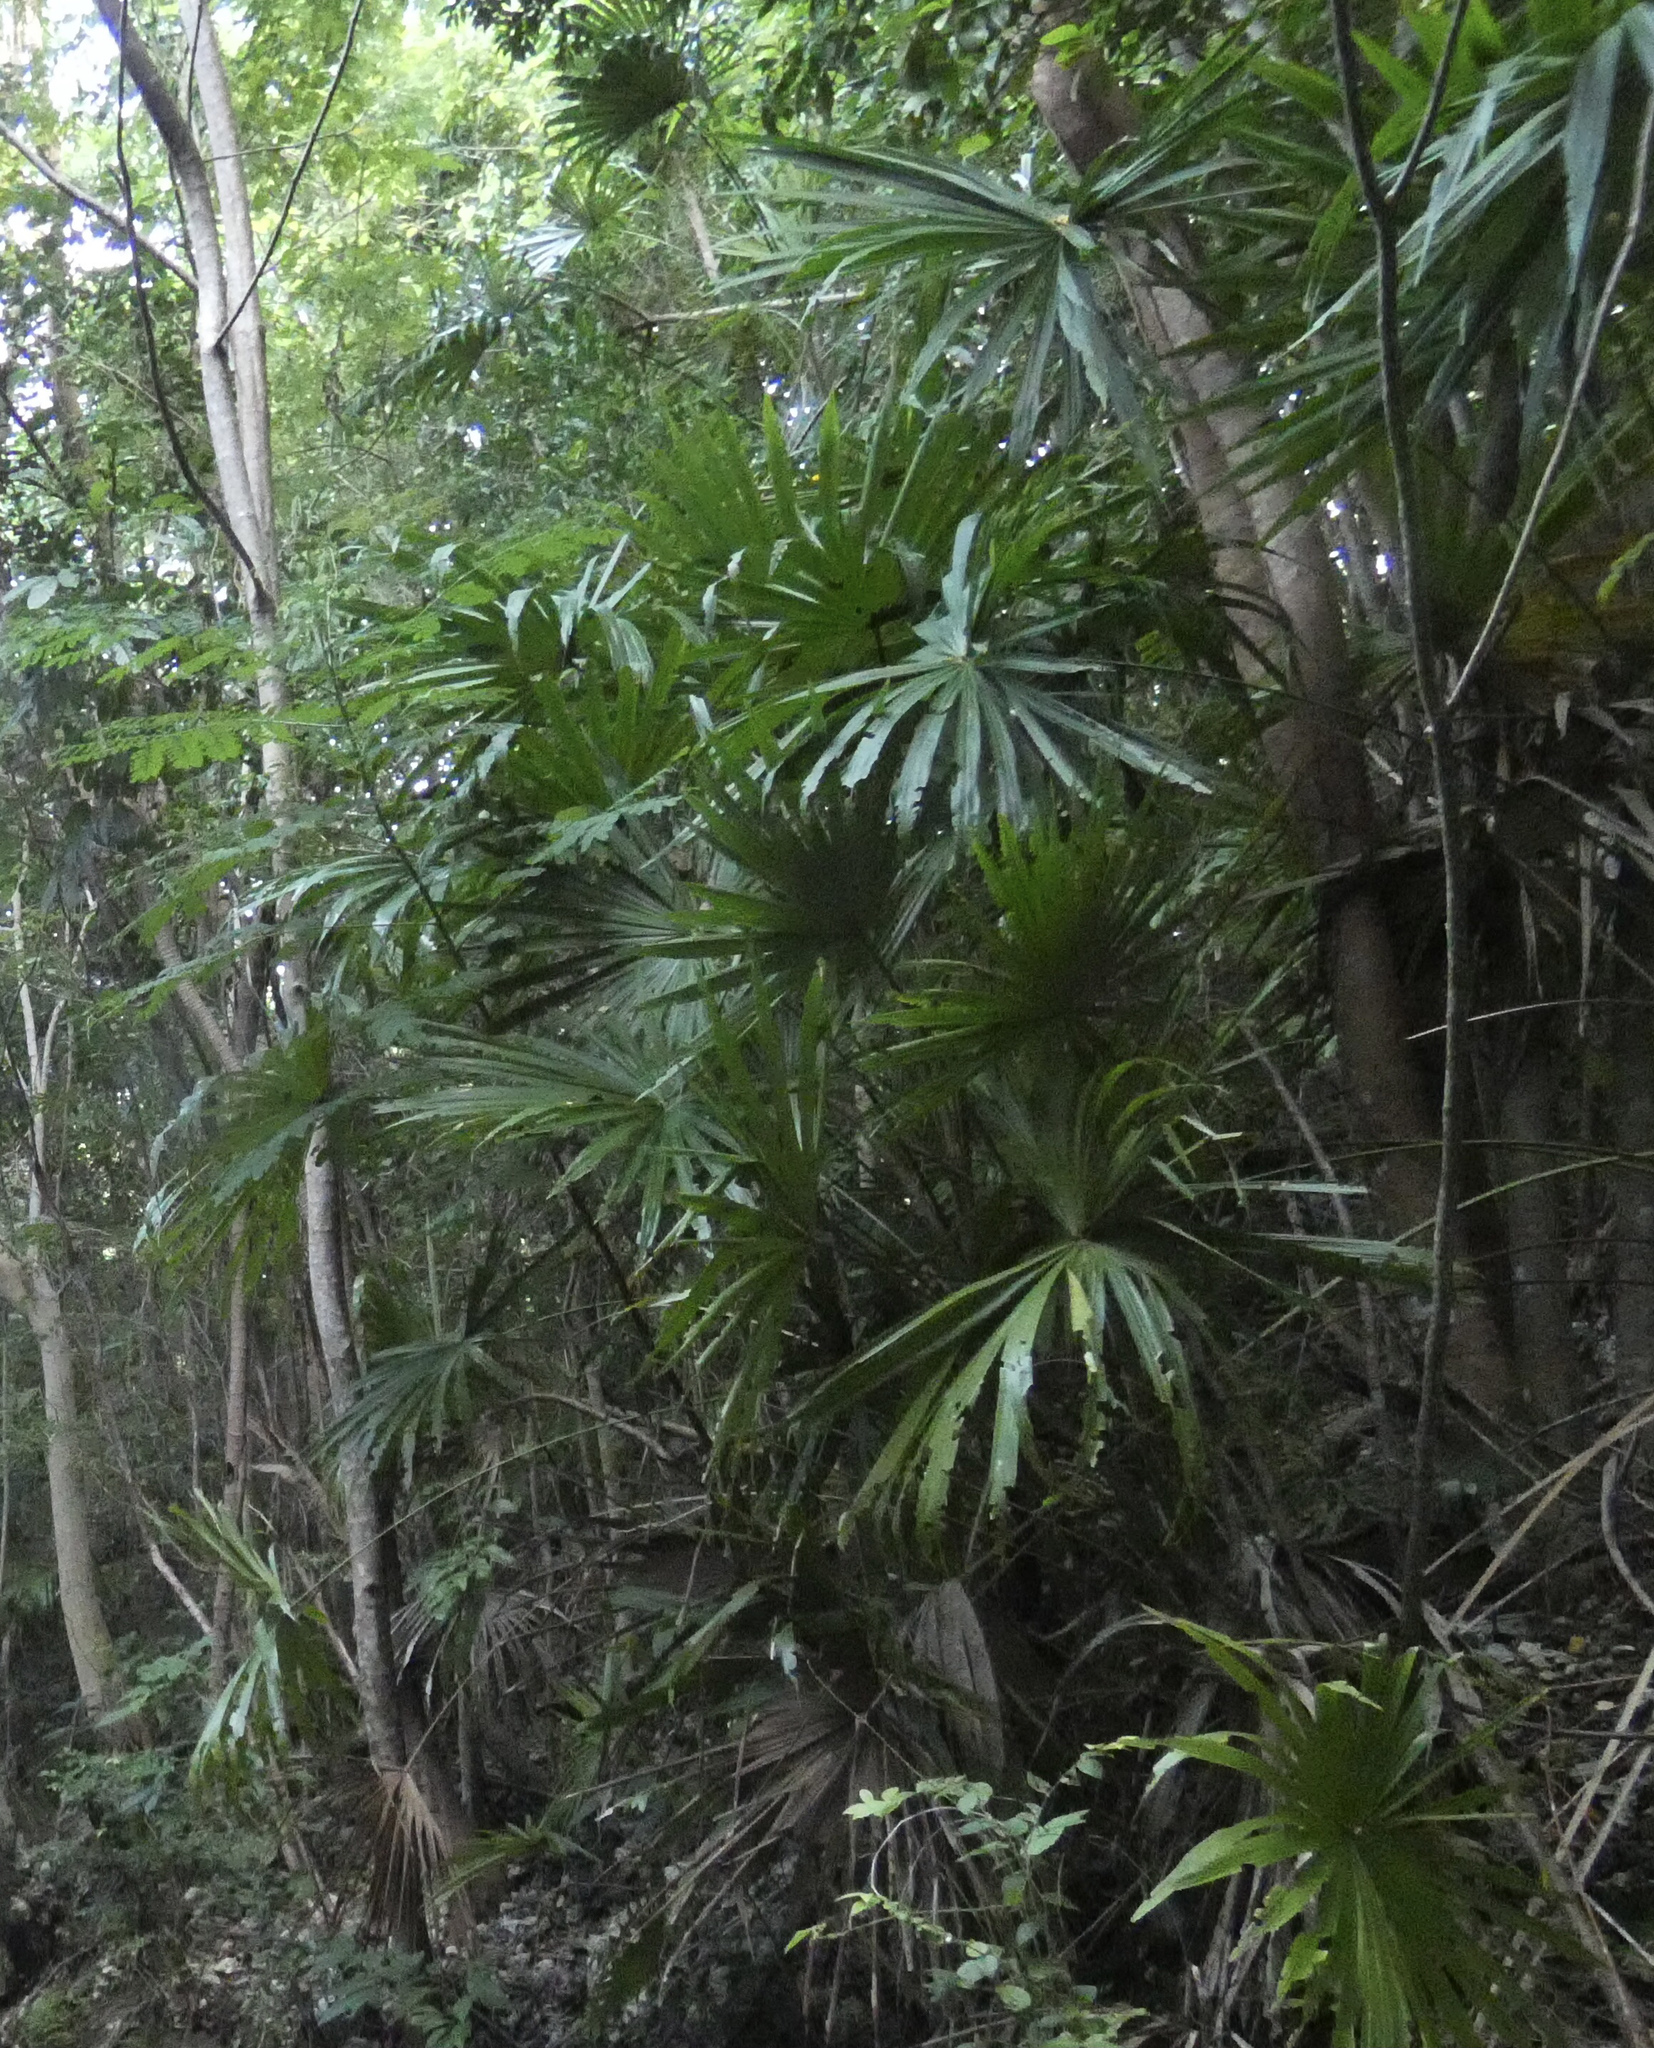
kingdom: Plantae
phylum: Tracheophyta
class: Liliopsida
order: Pandanales
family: Cyclanthaceae
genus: Carludovica
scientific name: Carludovica palmata
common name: Panama hat plant
